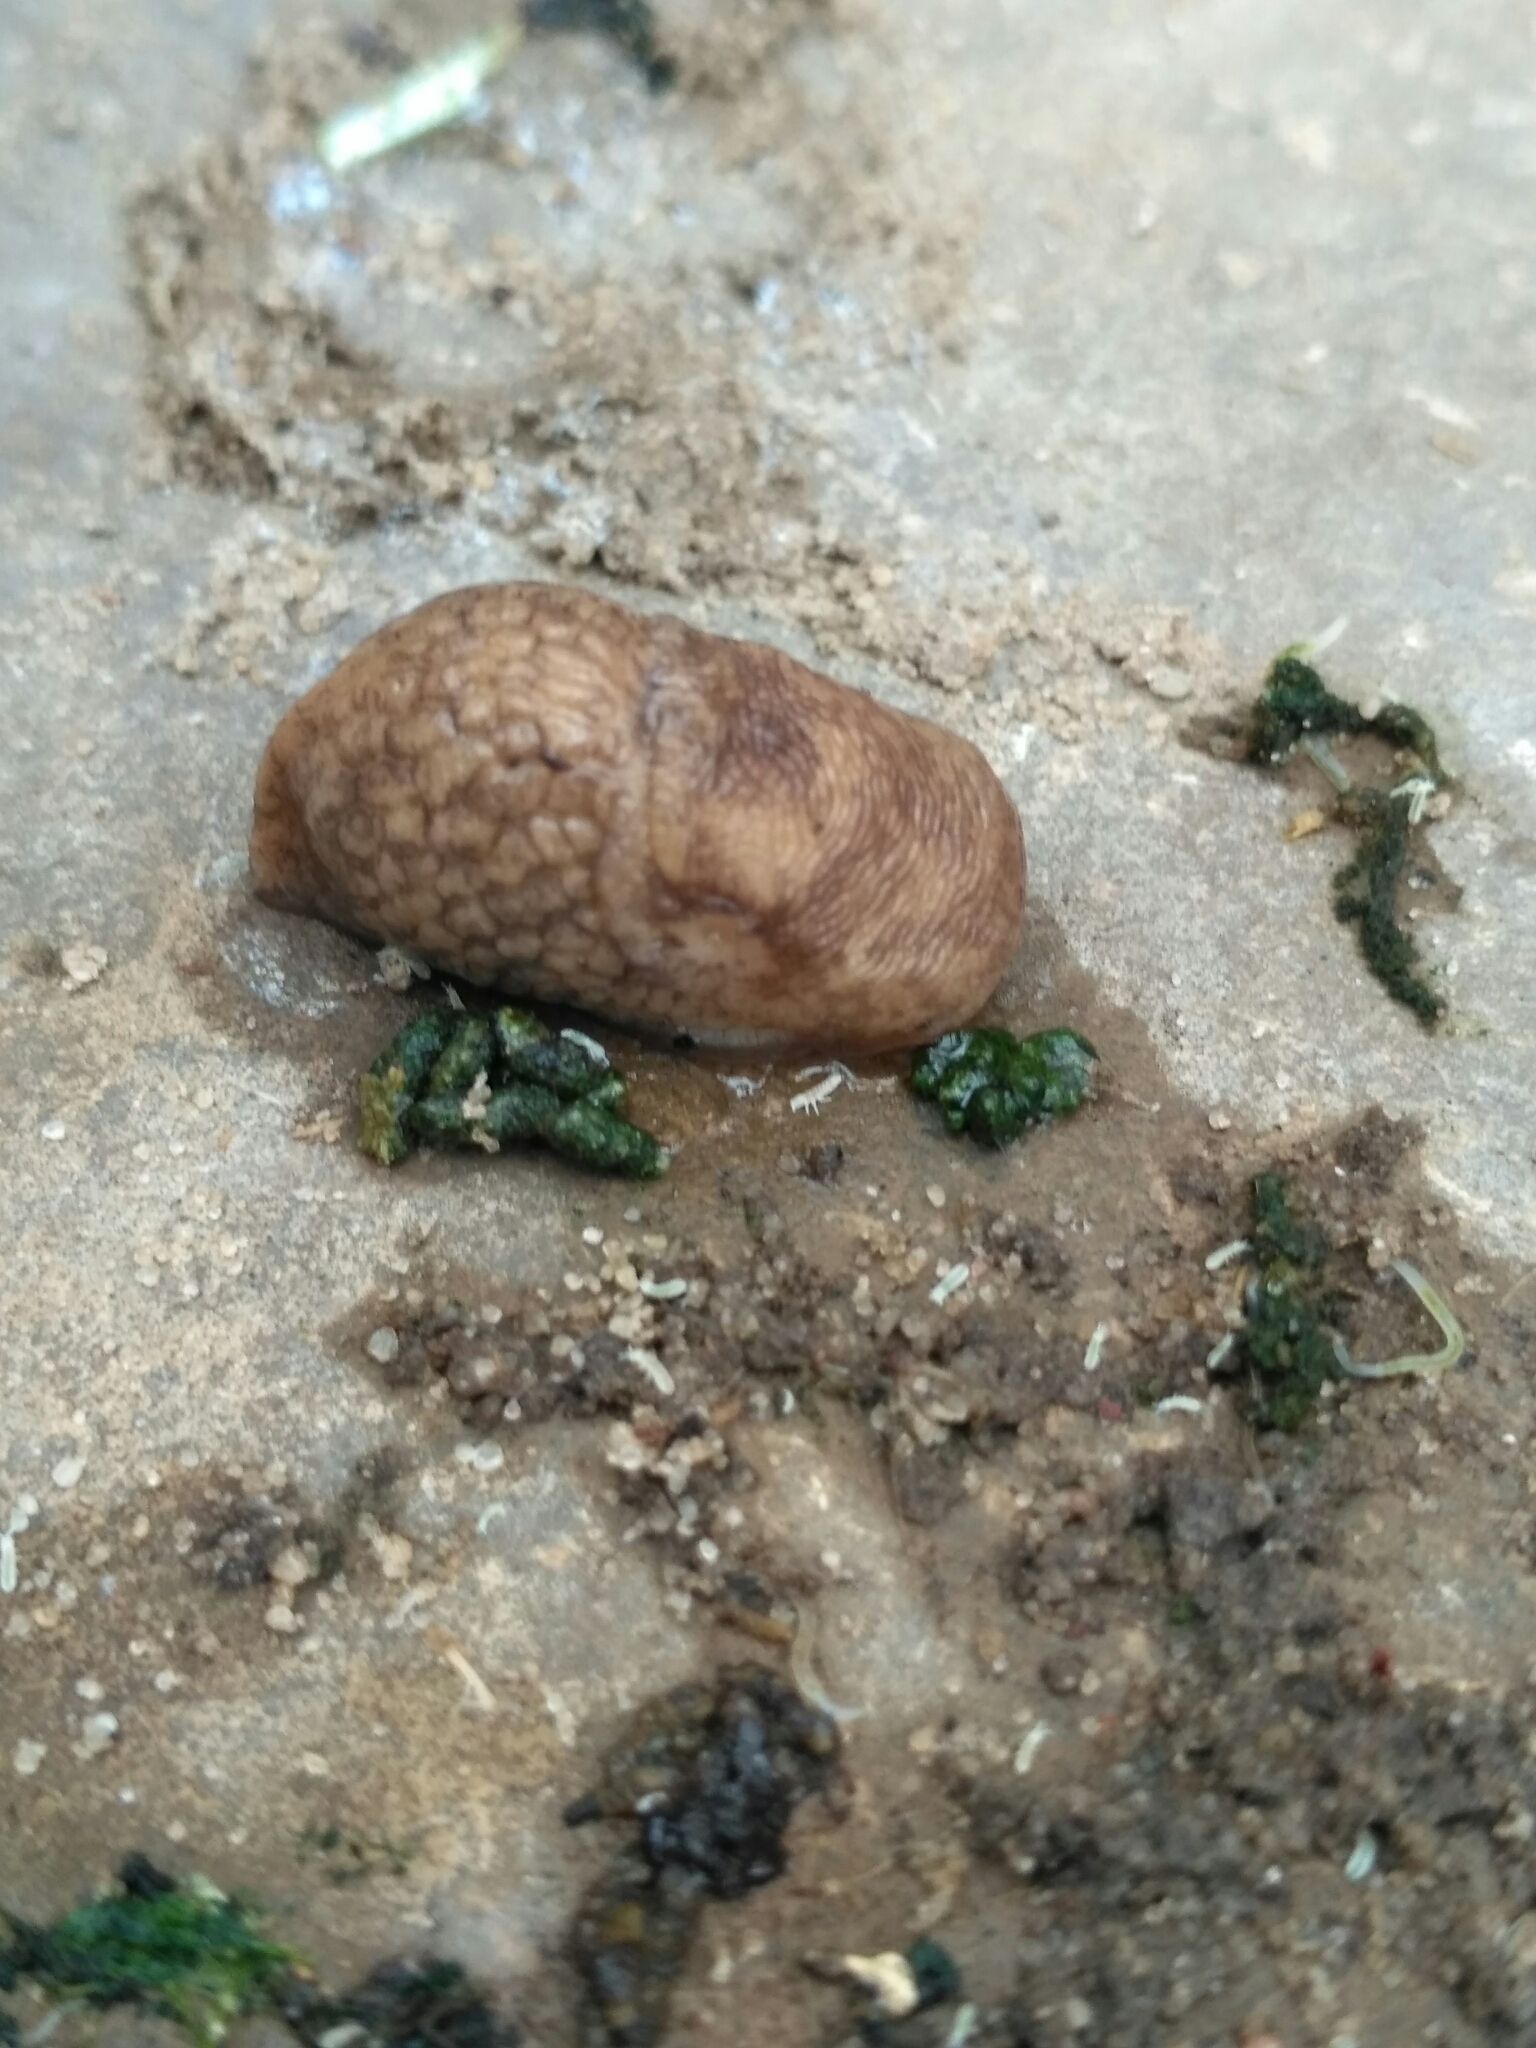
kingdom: Animalia
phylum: Mollusca
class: Gastropoda
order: Stylommatophora
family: Agriolimacidae
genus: Deroceras
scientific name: Deroceras reticulatum
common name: Gray field slug
